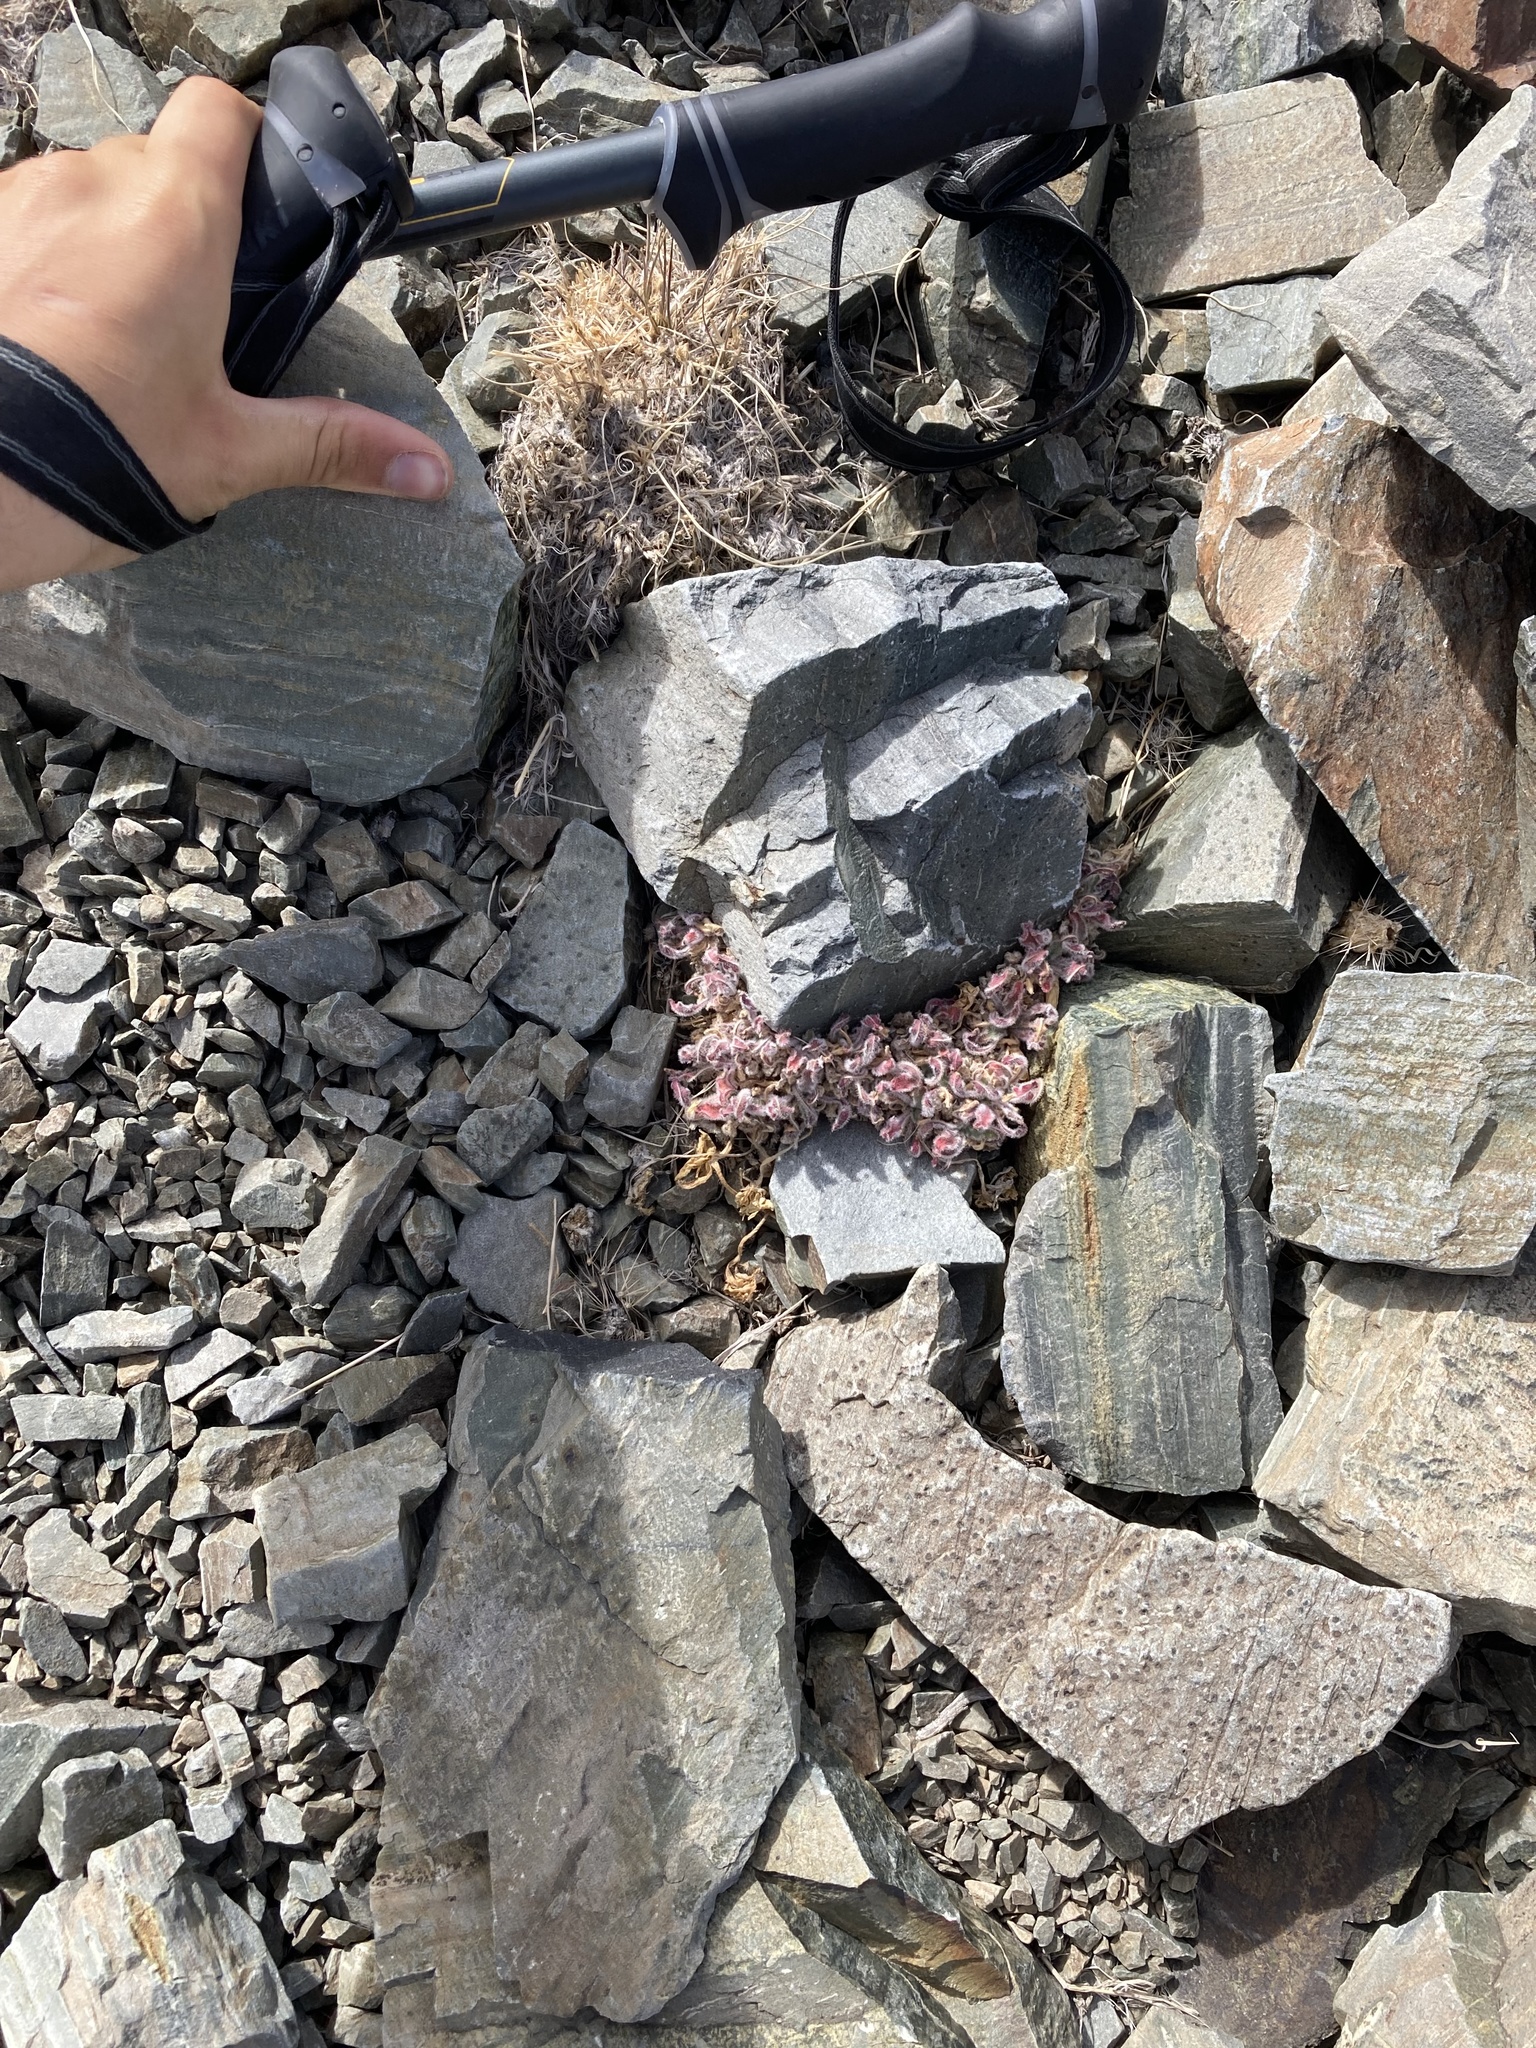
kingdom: Plantae
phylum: Tracheophyta
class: Magnoliopsida
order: Myrtales
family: Onagraceae
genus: Oenothera
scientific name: Oenothera cespitosa
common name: Tufted evening-primrose
